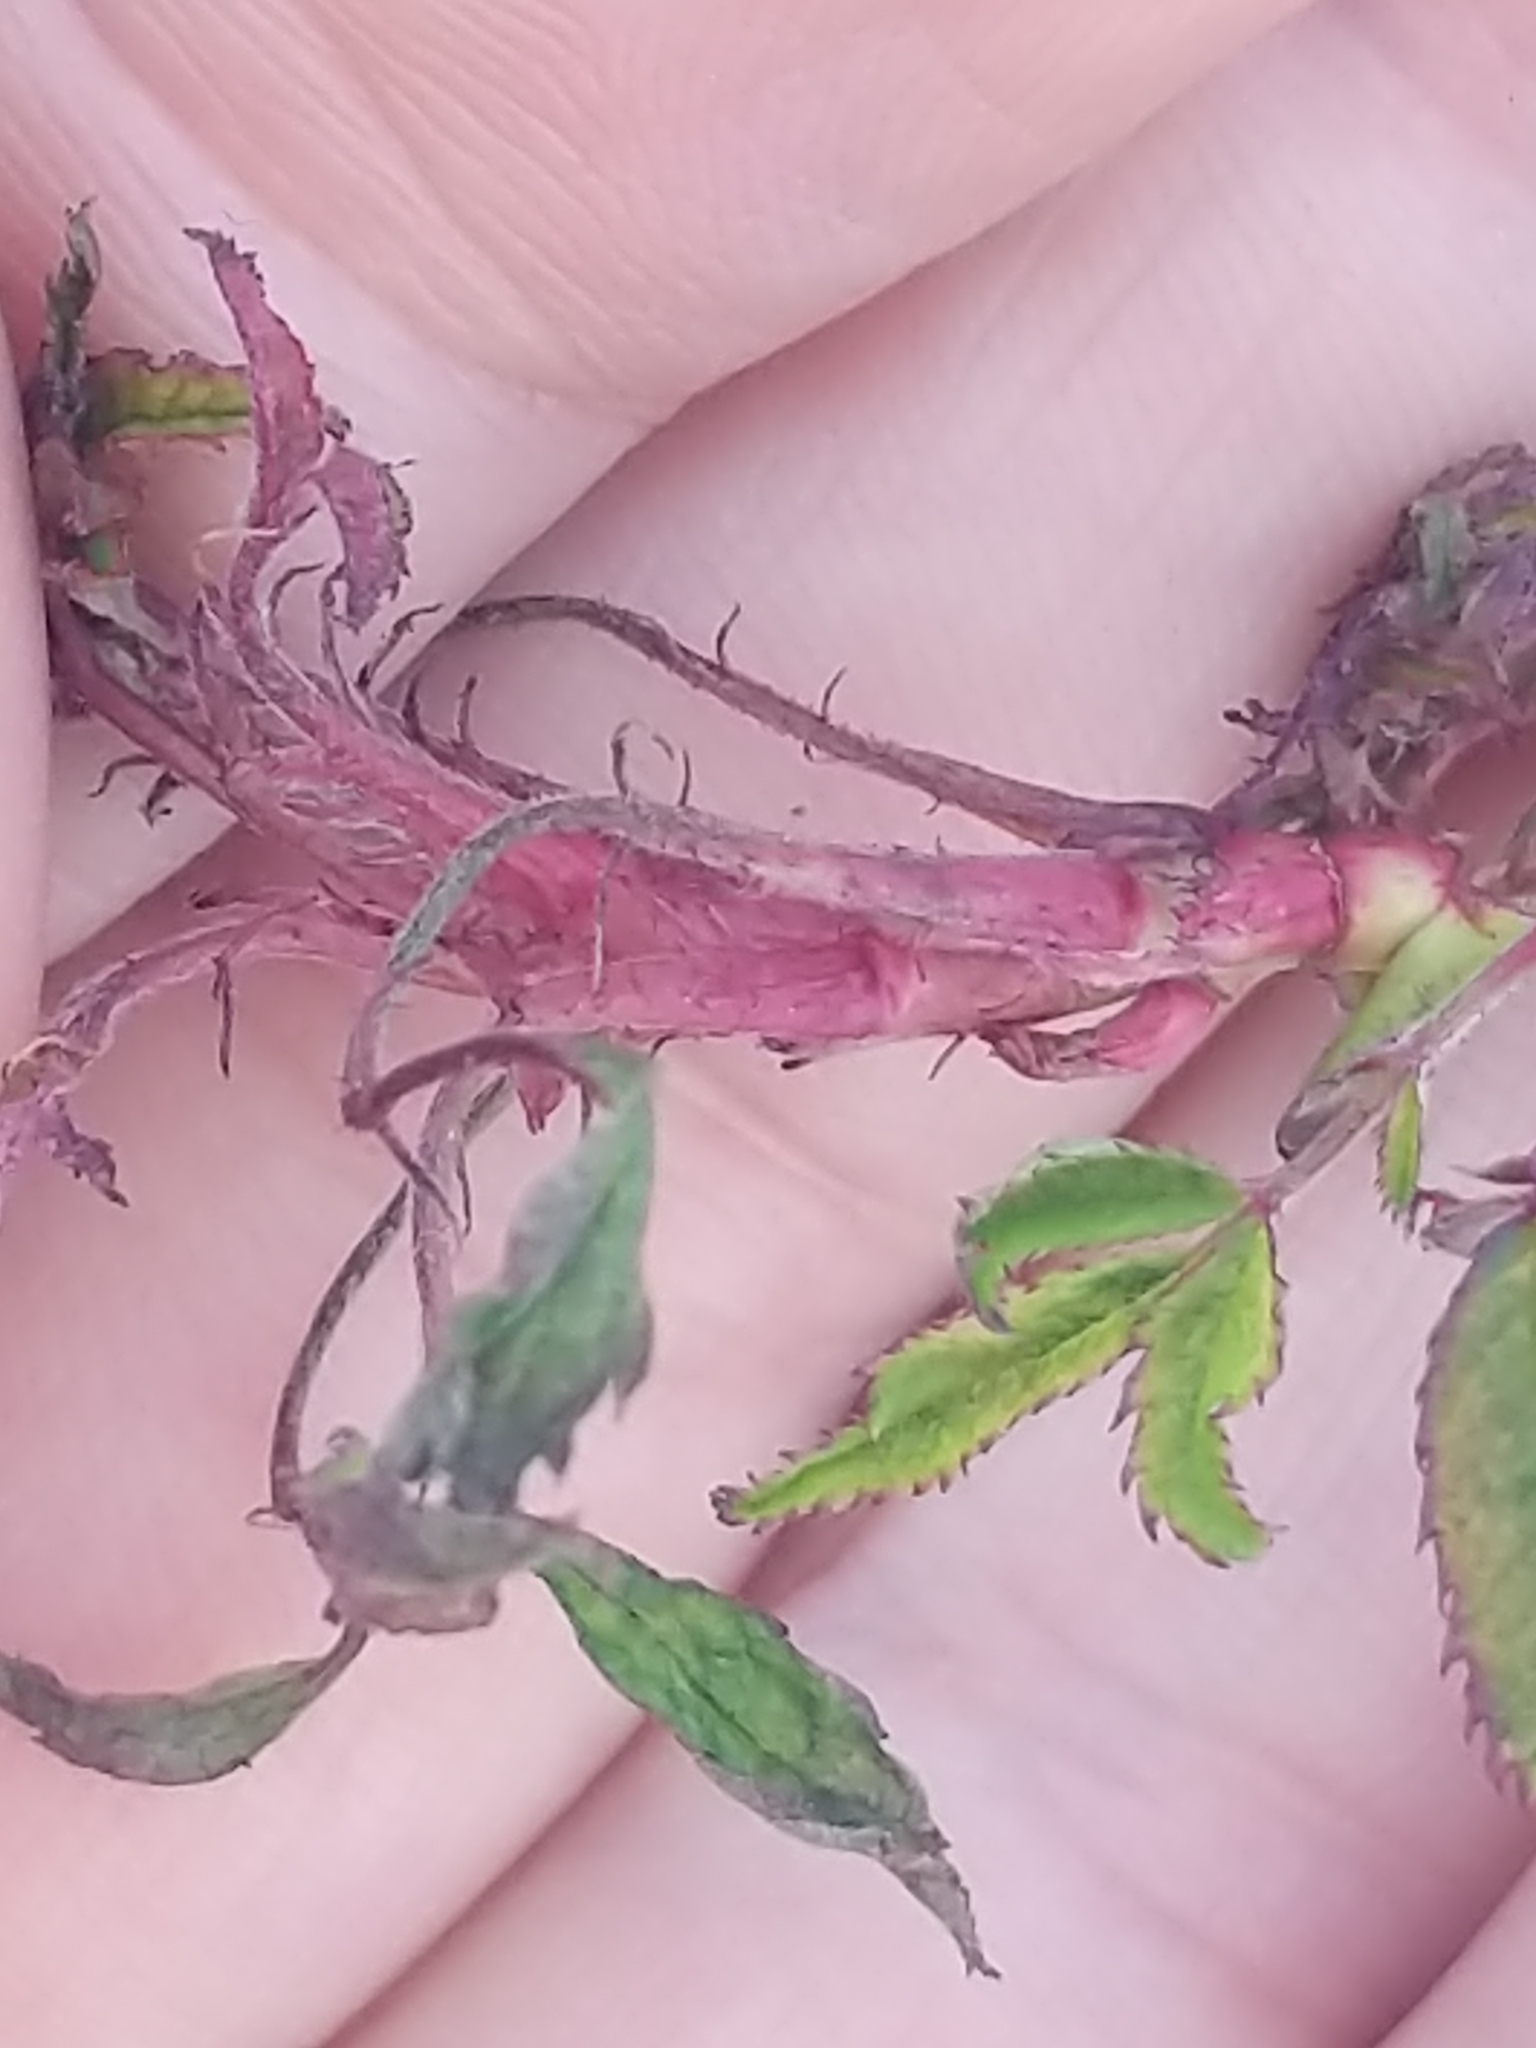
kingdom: Plantae
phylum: Tracheophyta
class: Magnoliopsida
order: Rosales
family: Rosaceae
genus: Rosa
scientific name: Rosa multiflora
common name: Multiflora rose
